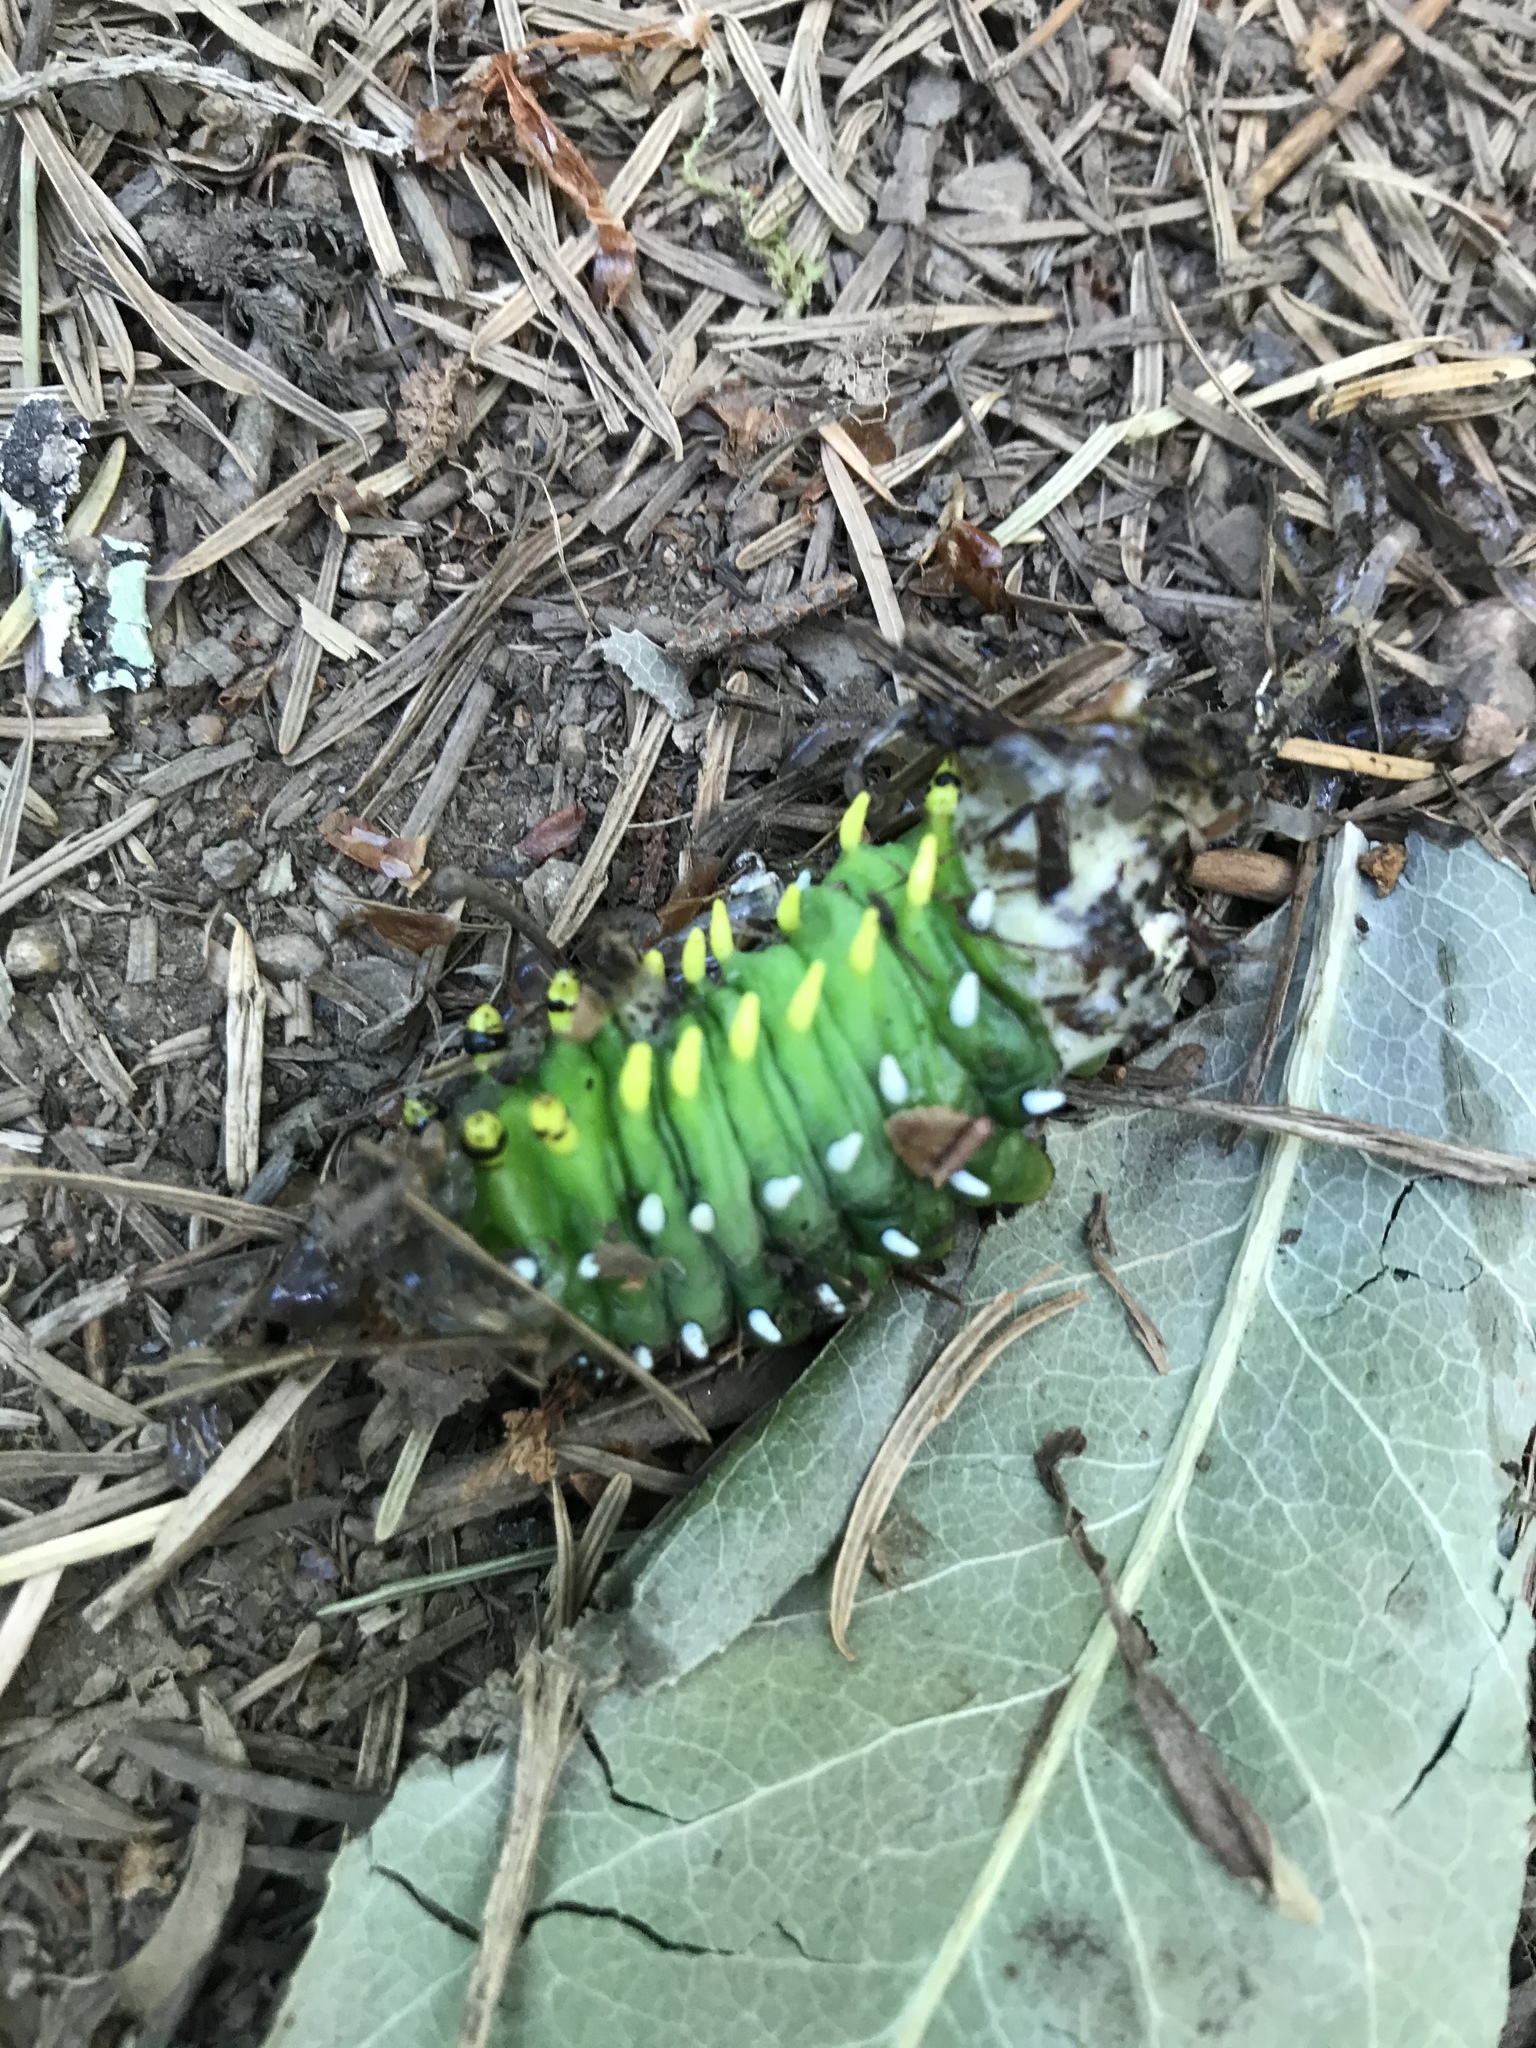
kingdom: Animalia
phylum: Arthropoda
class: Insecta
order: Lepidoptera
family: Saturniidae
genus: Hyalophora
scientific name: Hyalophora euryalus
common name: Ceanothus silkmoth
